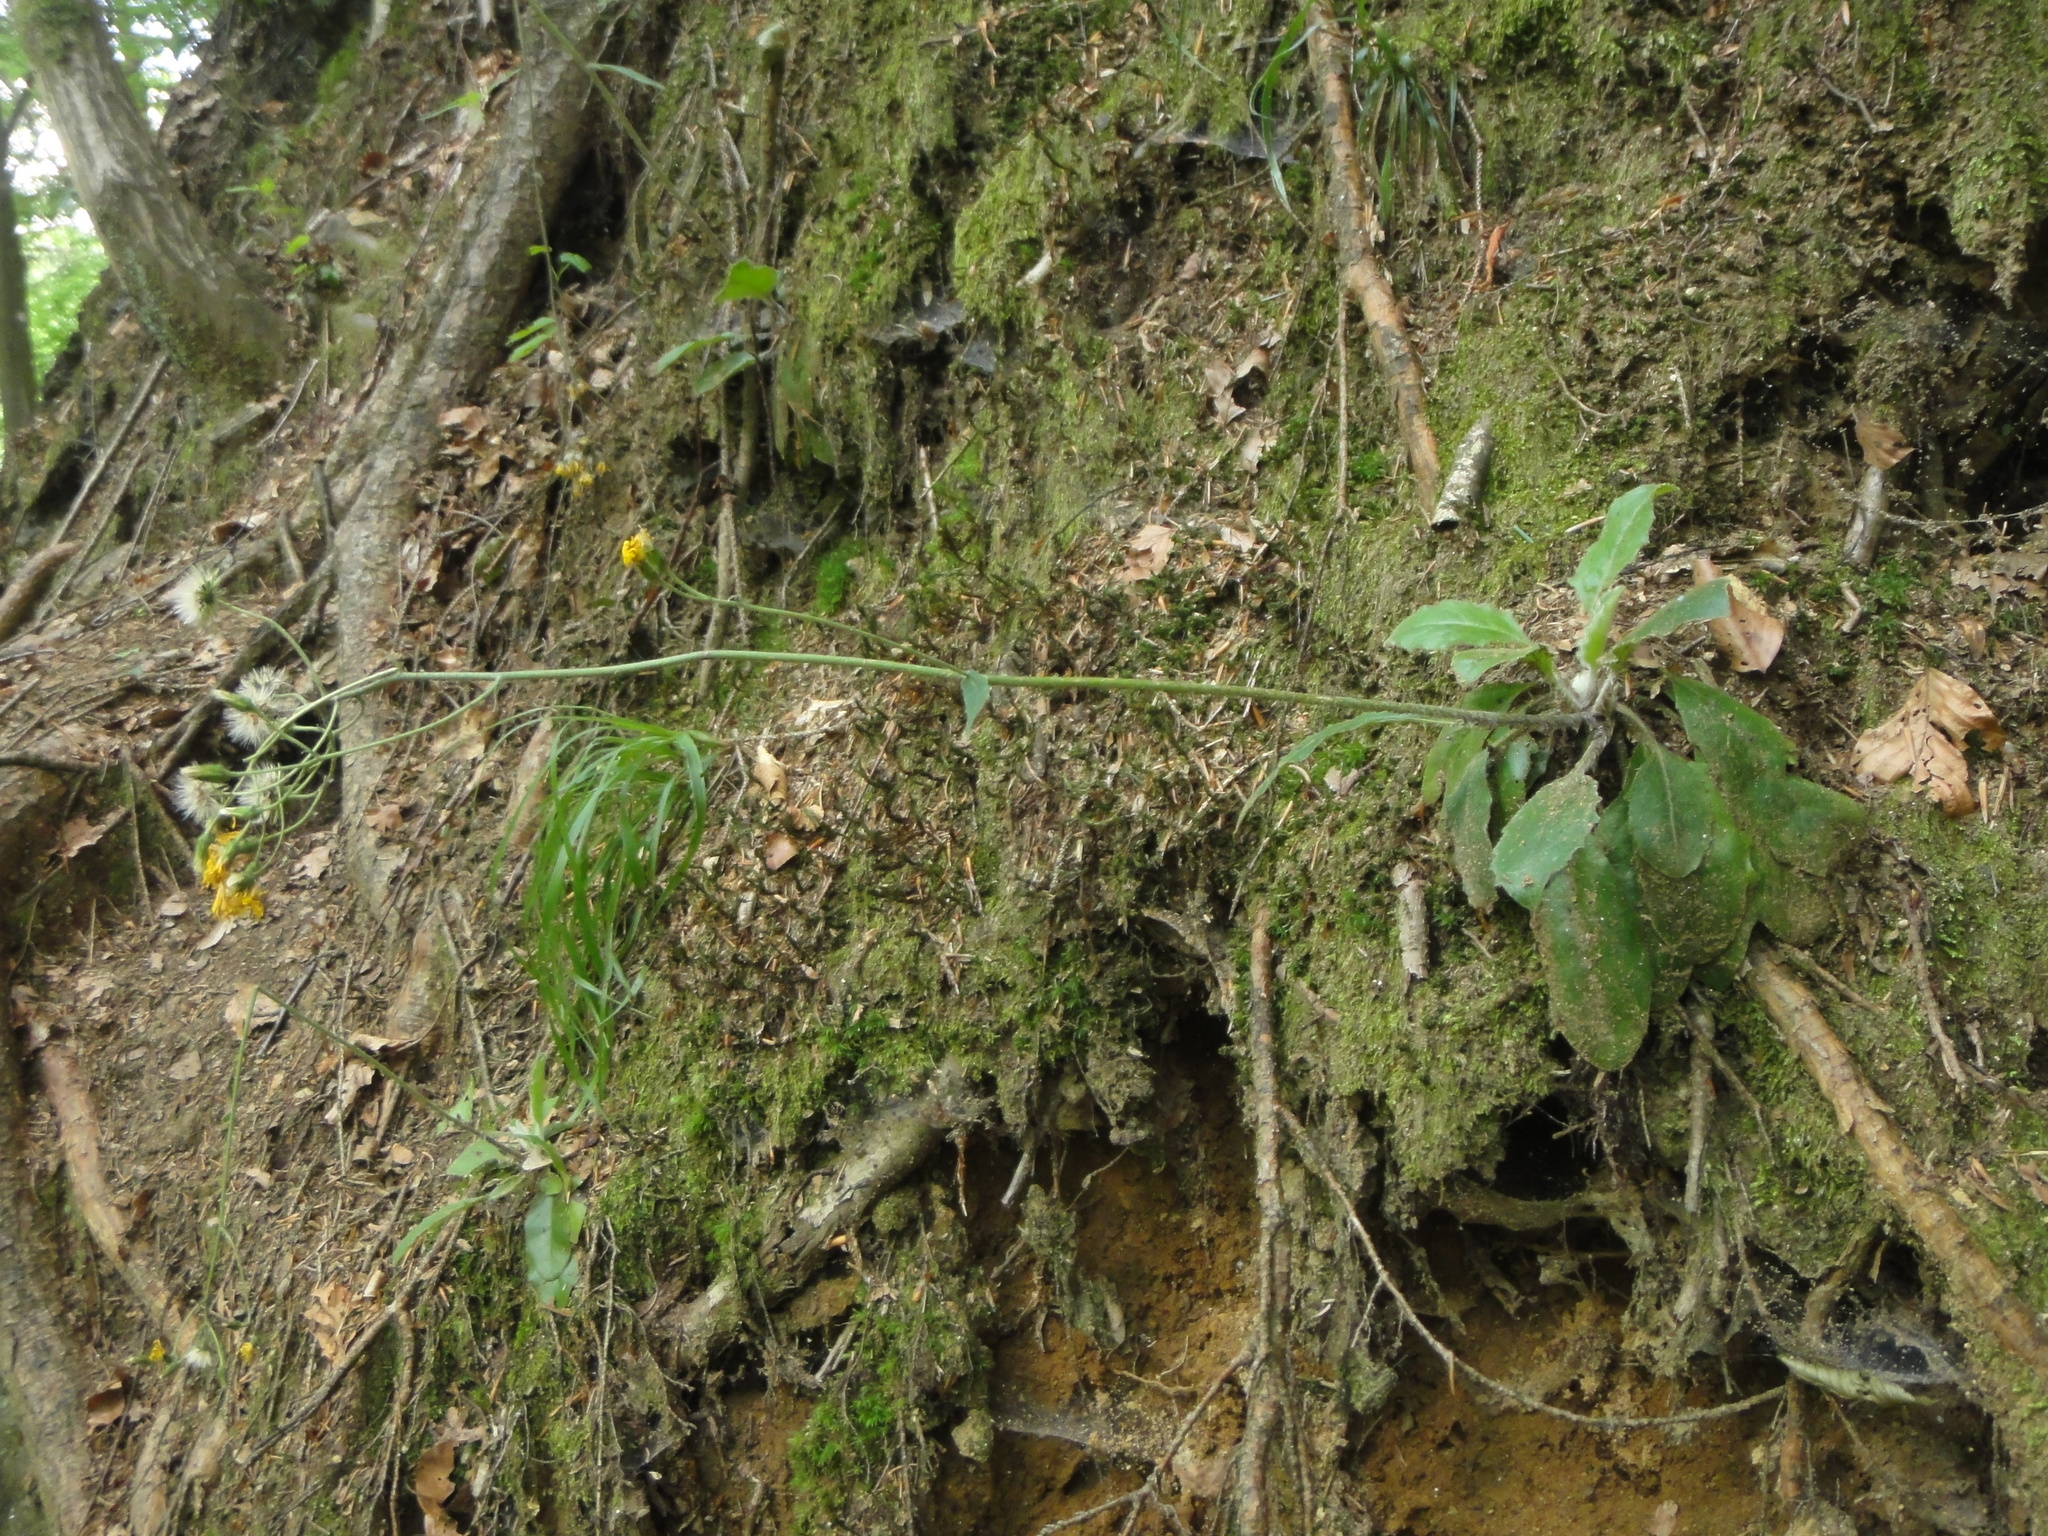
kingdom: Plantae
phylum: Tracheophyta
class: Magnoliopsida
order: Asterales
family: Asteraceae
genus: Hieracium
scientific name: Hieracium transylvanicum
